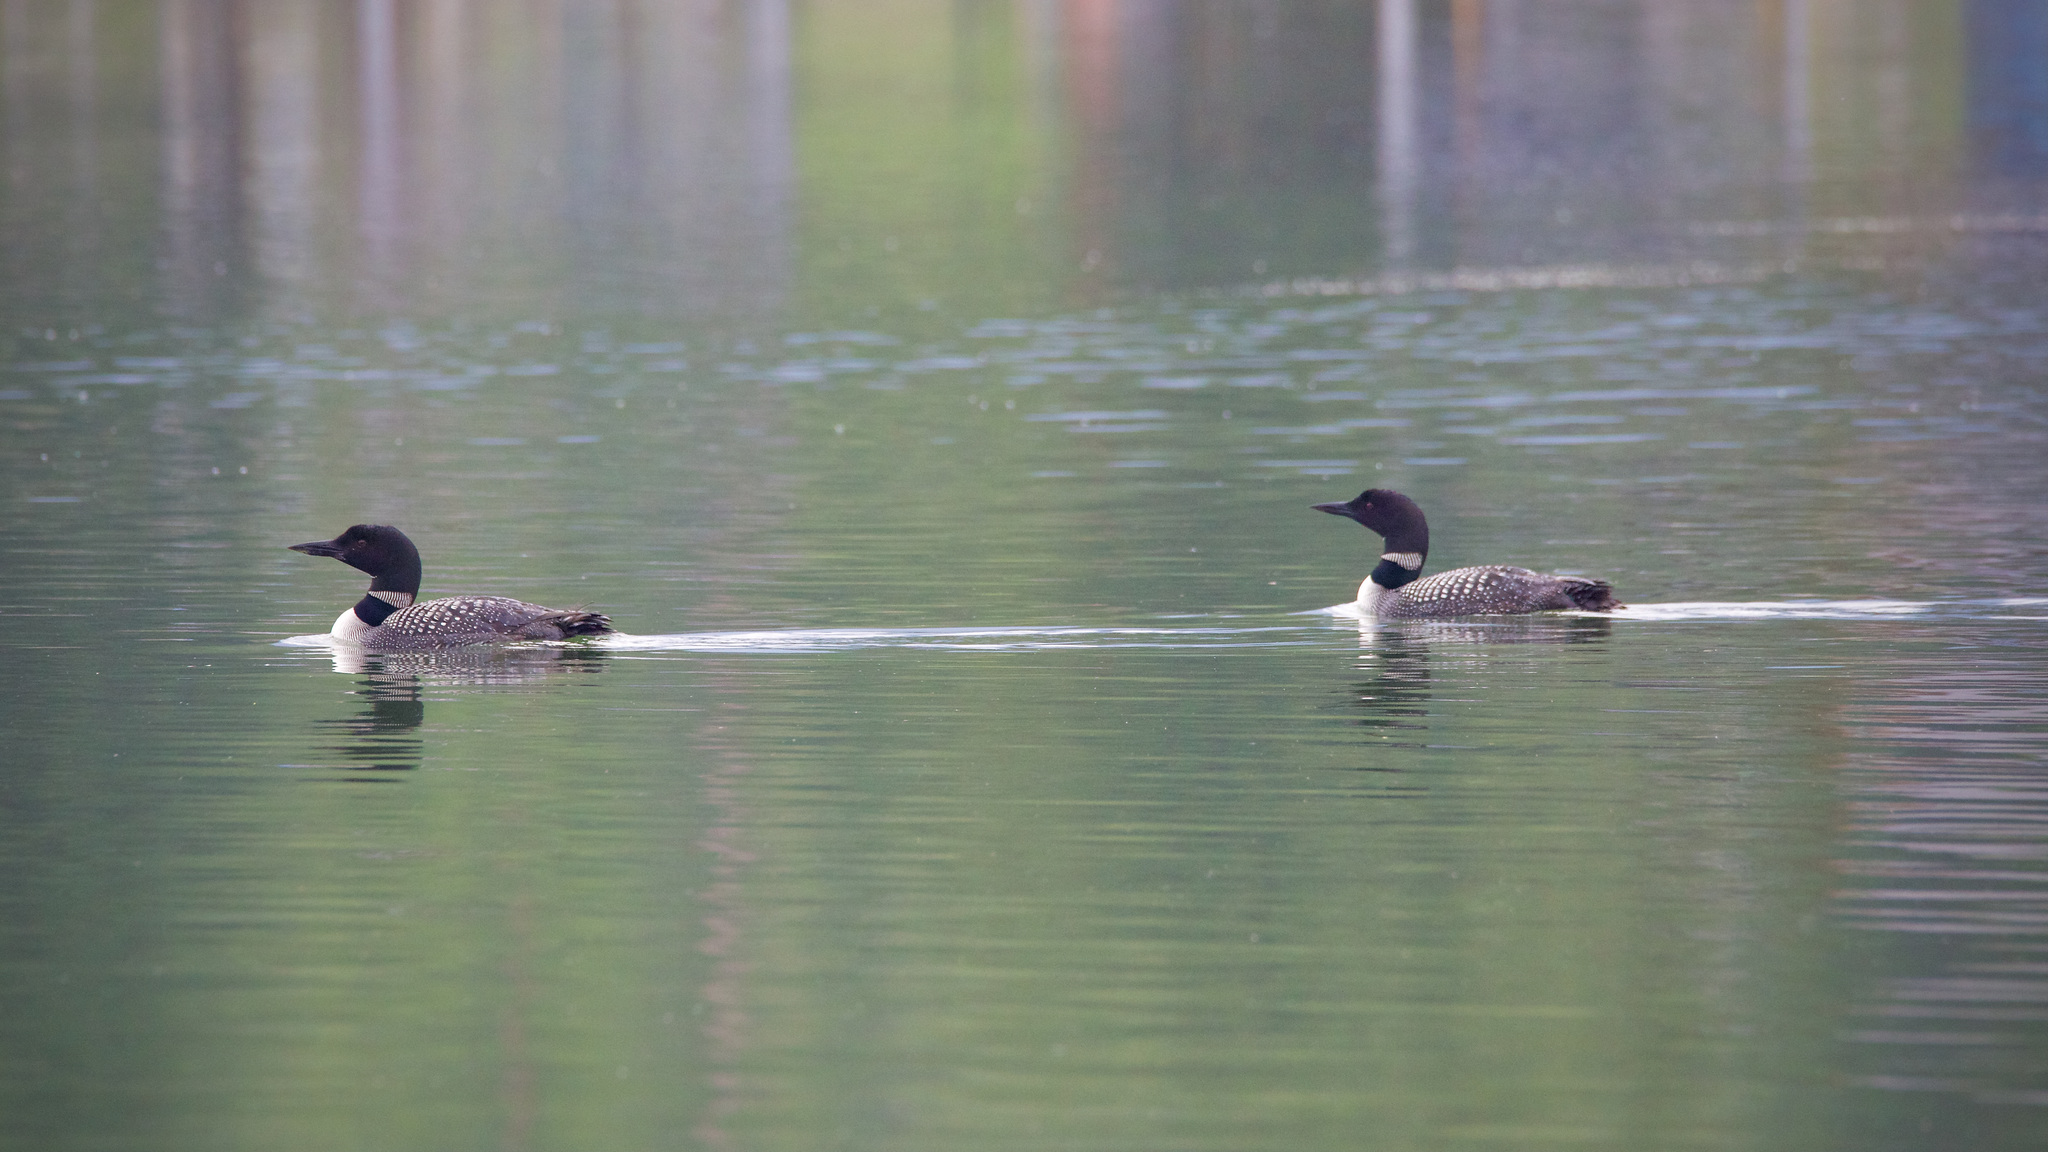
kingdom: Animalia
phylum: Chordata
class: Aves
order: Gaviiformes
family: Gaviidae
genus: Gavia
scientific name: Gavia immer
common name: Common loon
